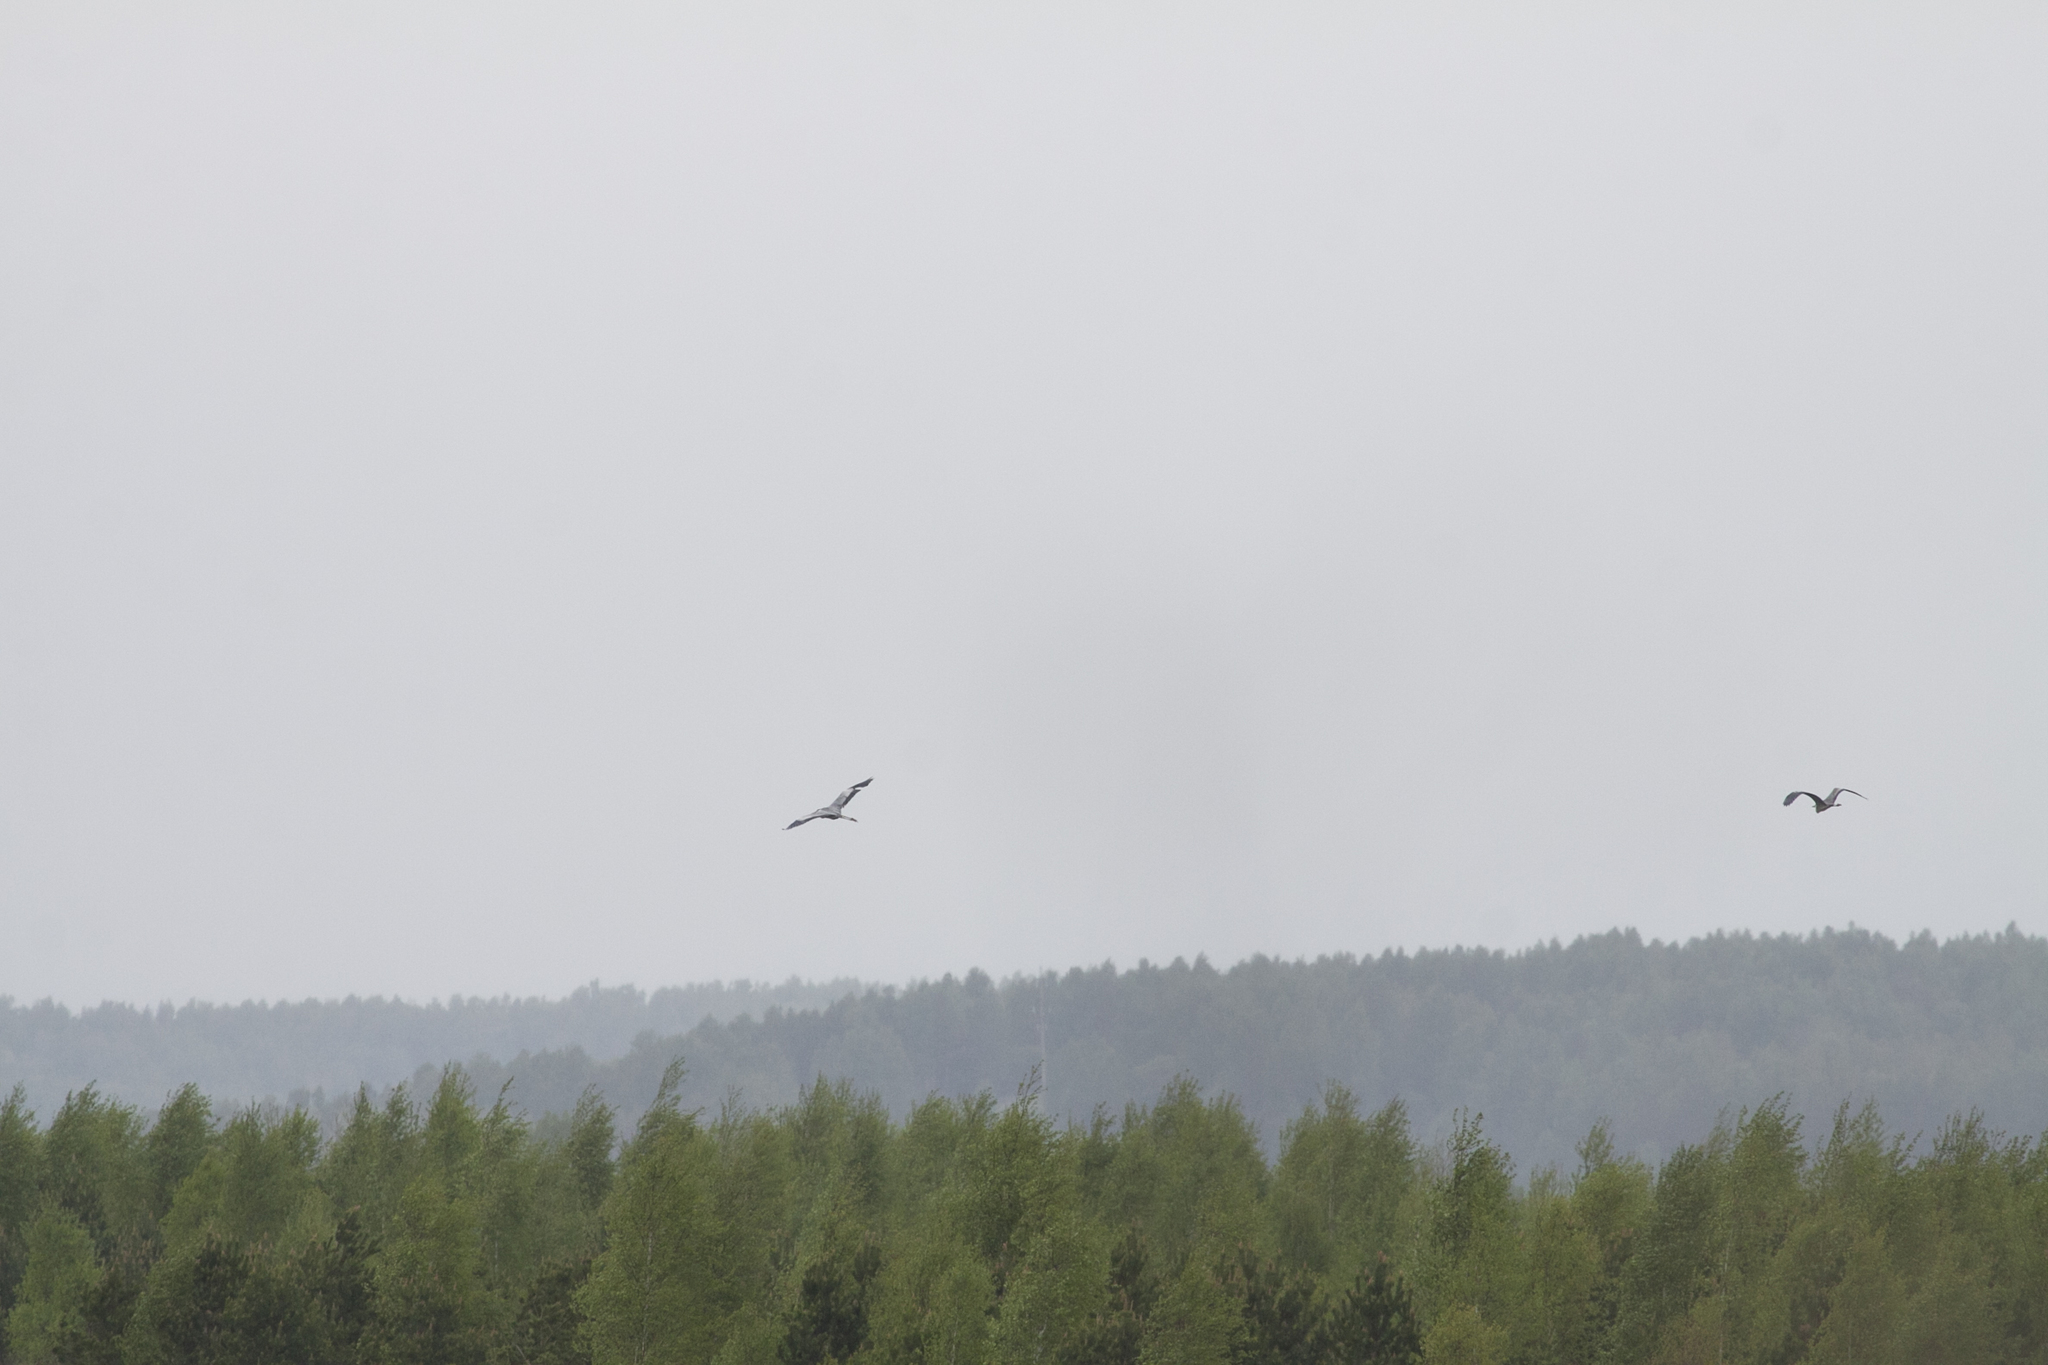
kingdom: Animalia
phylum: Chordata
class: Aves
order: Pelecaniformes
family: Ardeidae
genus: Ardea
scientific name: Ardea cinerea
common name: Grey heron
